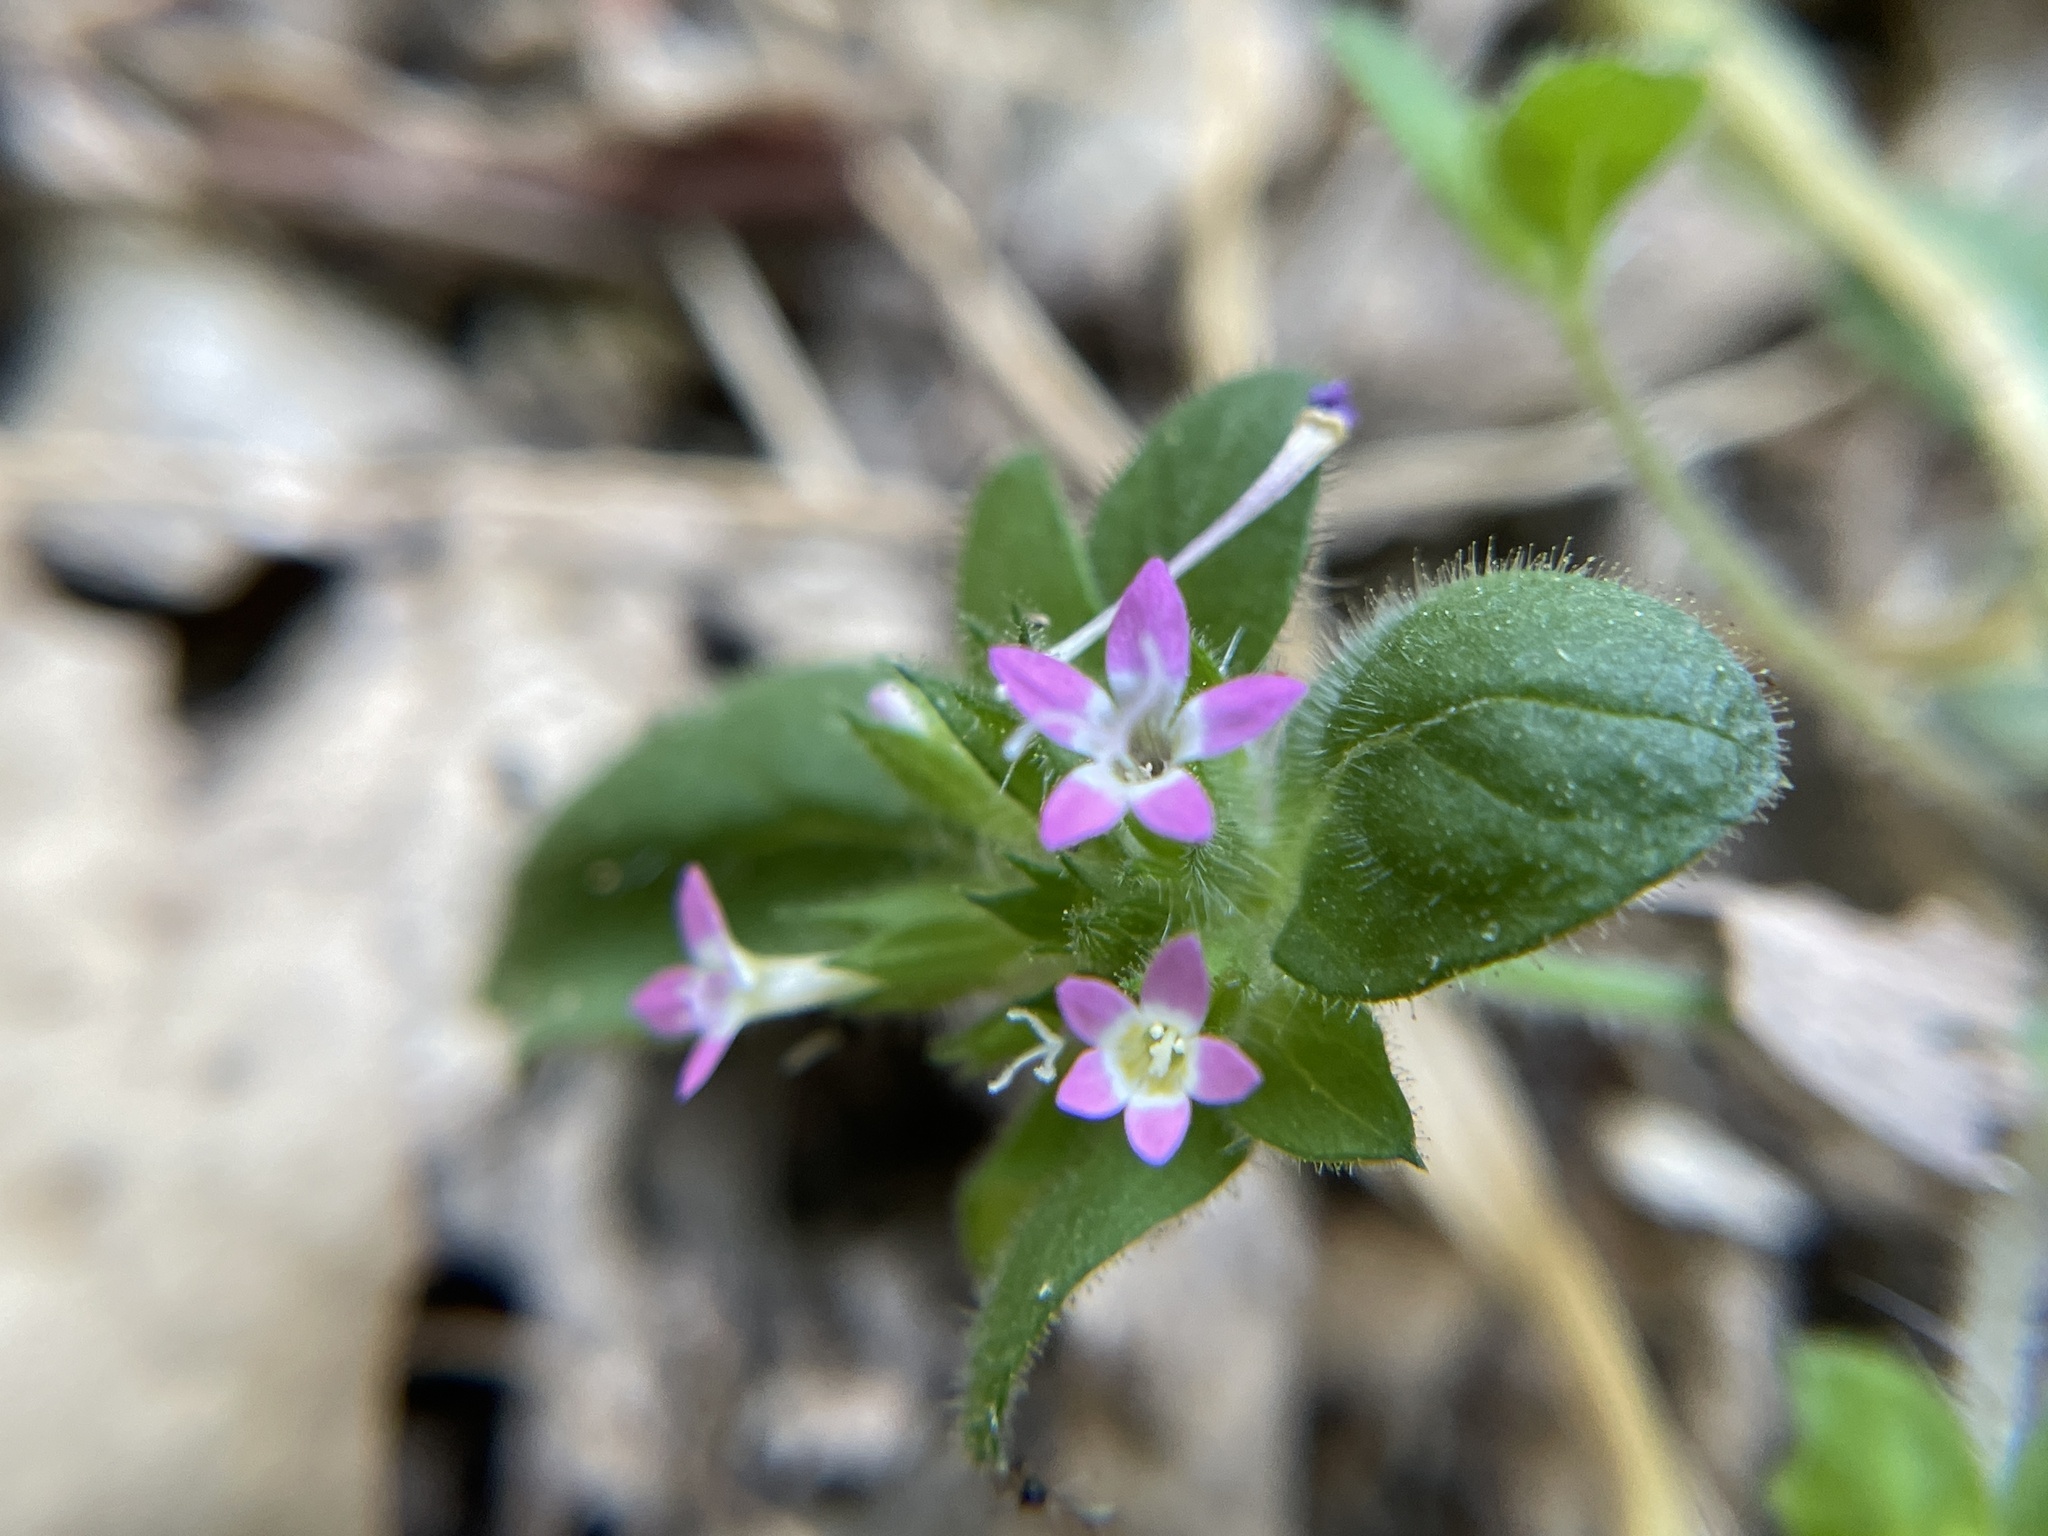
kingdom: Plantae
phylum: Tracheophyta
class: Magnoliopsida
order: Ericales
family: Polemoniaceae
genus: Collomia
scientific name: Collomia heterophylla
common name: Variable-leaved collomia
